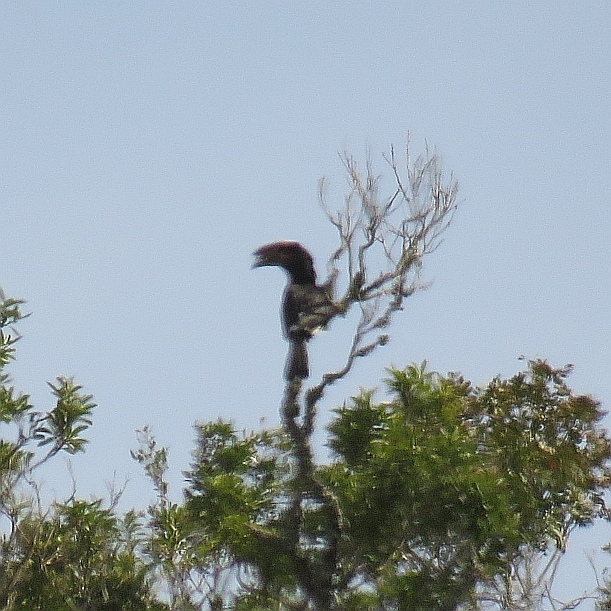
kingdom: Animalia
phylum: Chordata
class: Aves
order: Bucerotiformes
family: Bucerotidae
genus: Bycanistes
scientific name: Bycanistes bucinator
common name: Trumpeter hornbill
